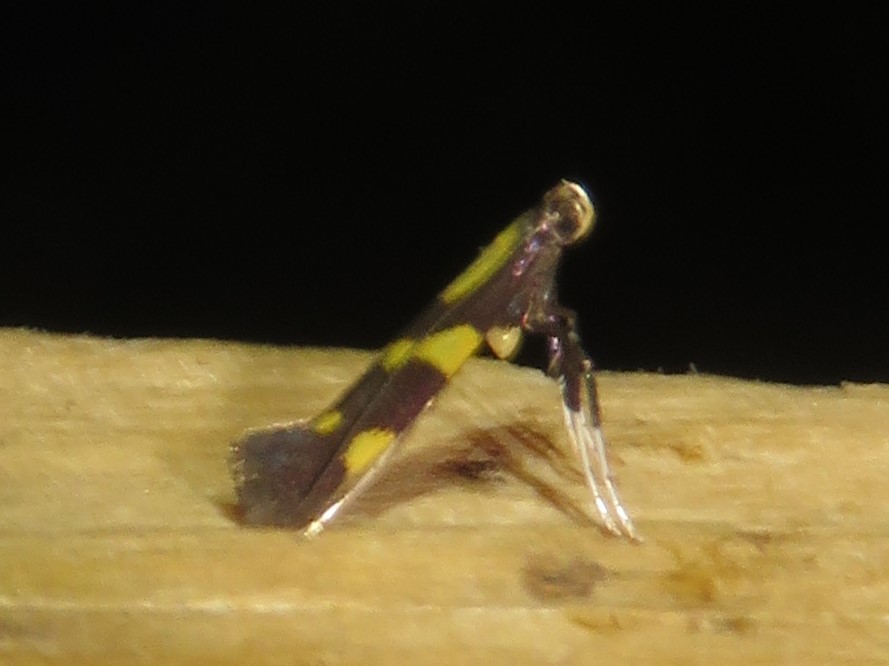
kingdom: Animalia
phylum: Arthropoda
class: Insecta
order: Lepidoptera
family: Gracillariidae
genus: Caloptilia
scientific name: Caloptilia vacciniella
